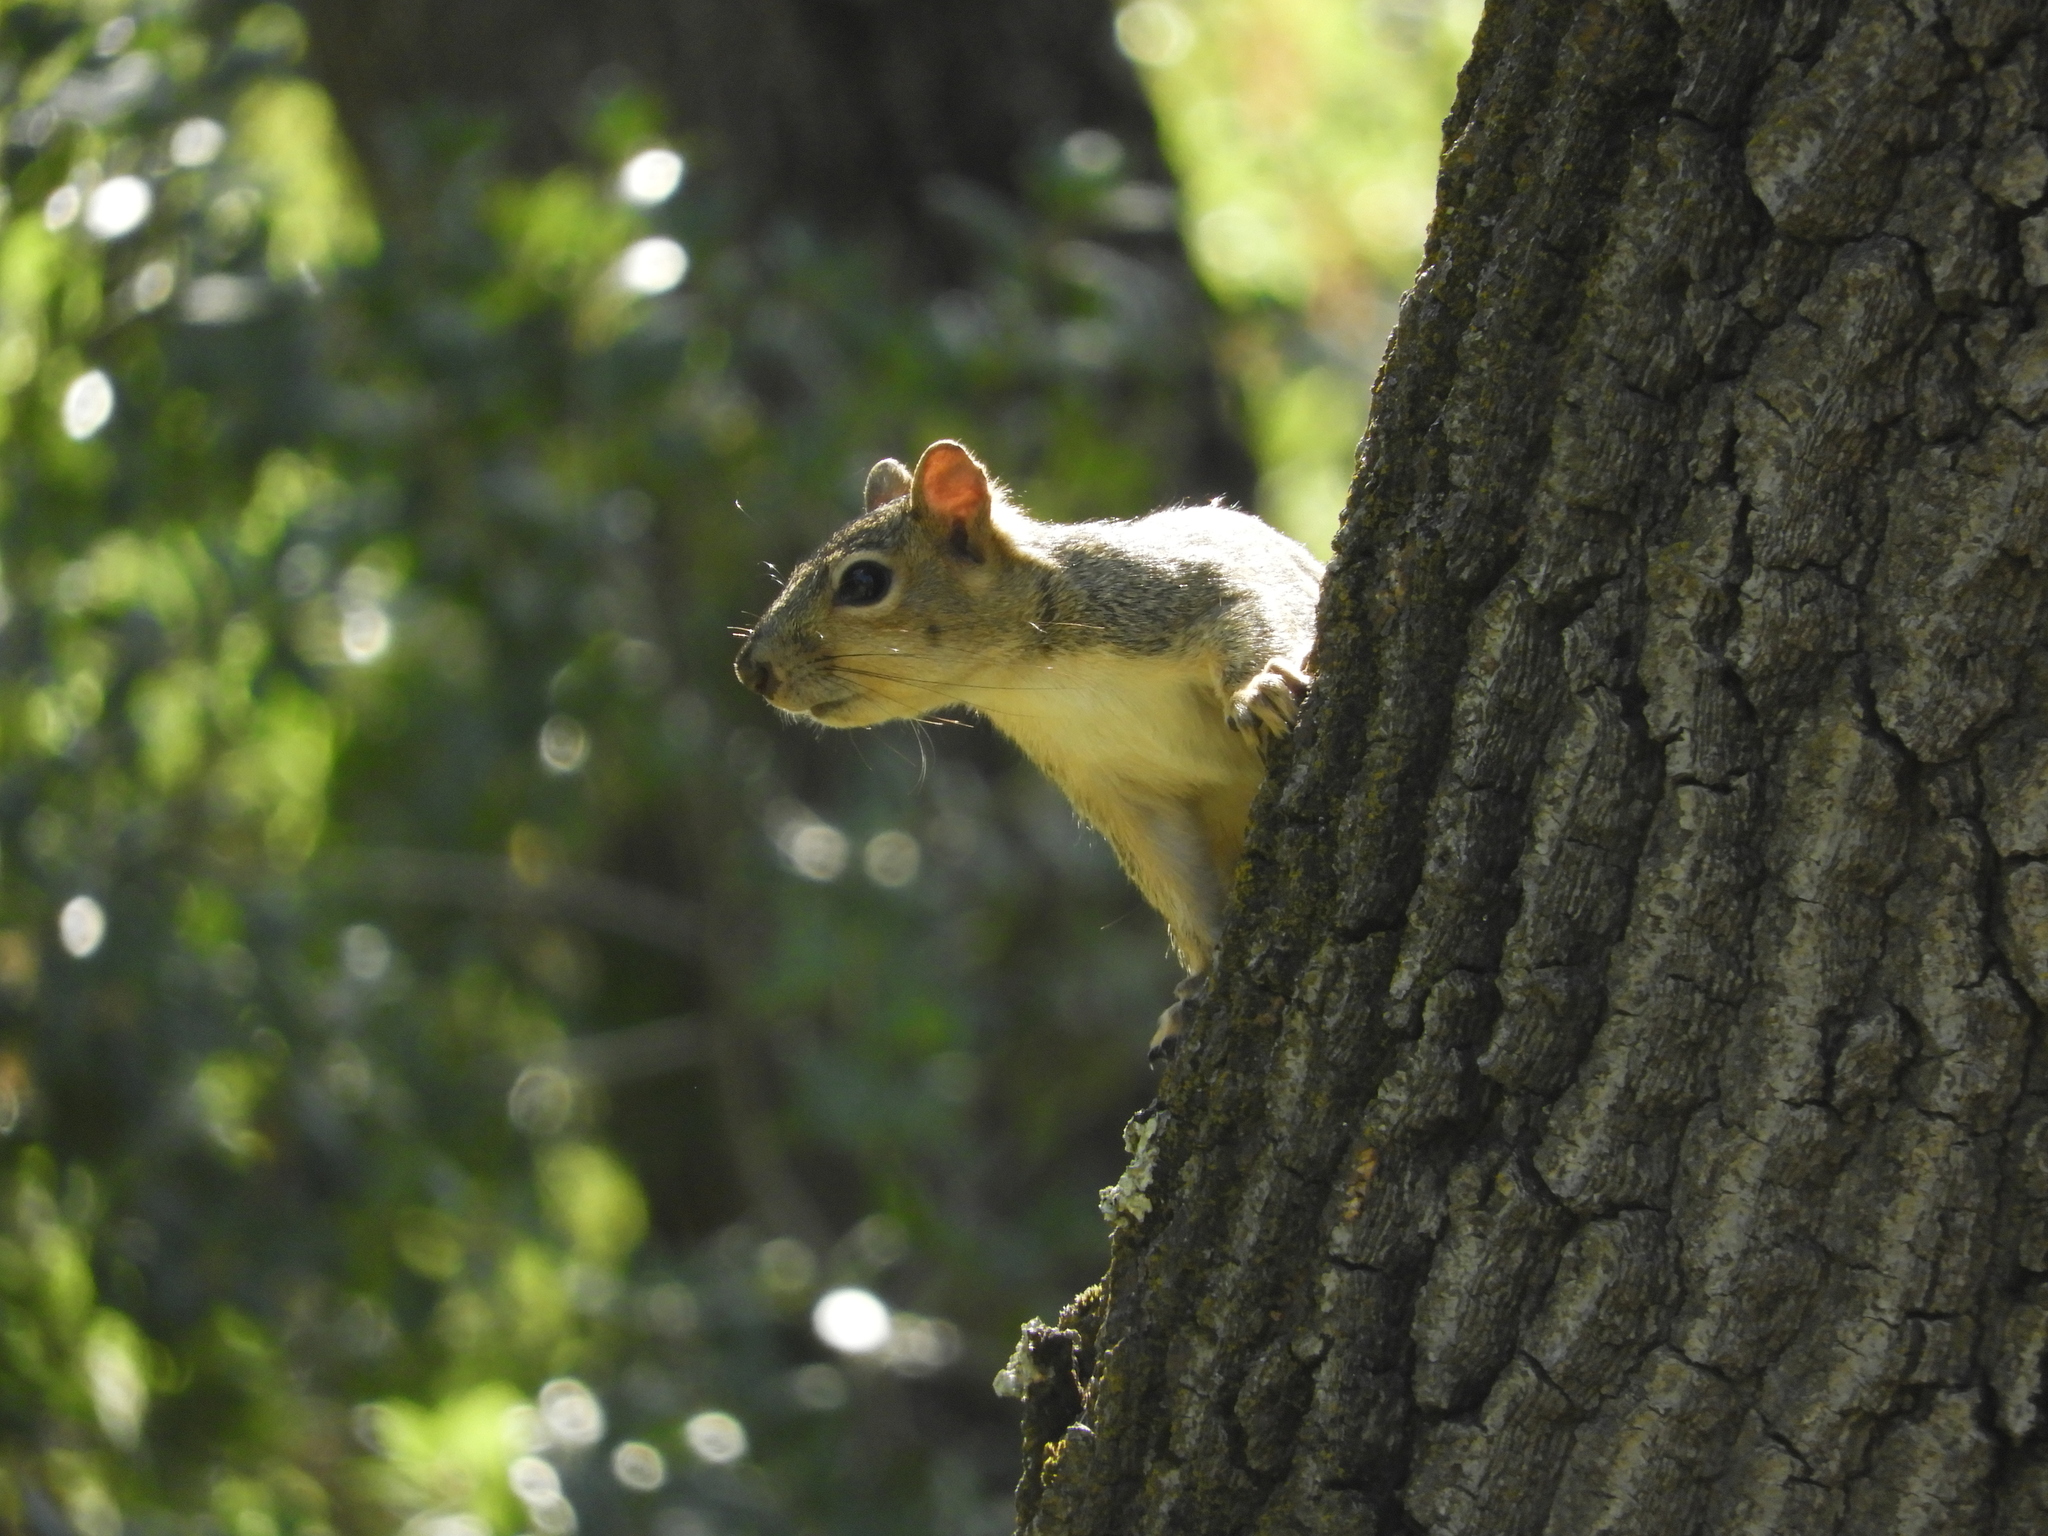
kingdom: Animalia
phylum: Chordata
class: Mammalia
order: Rodentia
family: Sciuridae
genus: Sciurus
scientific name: Sciurus niger
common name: Fox squirrel
